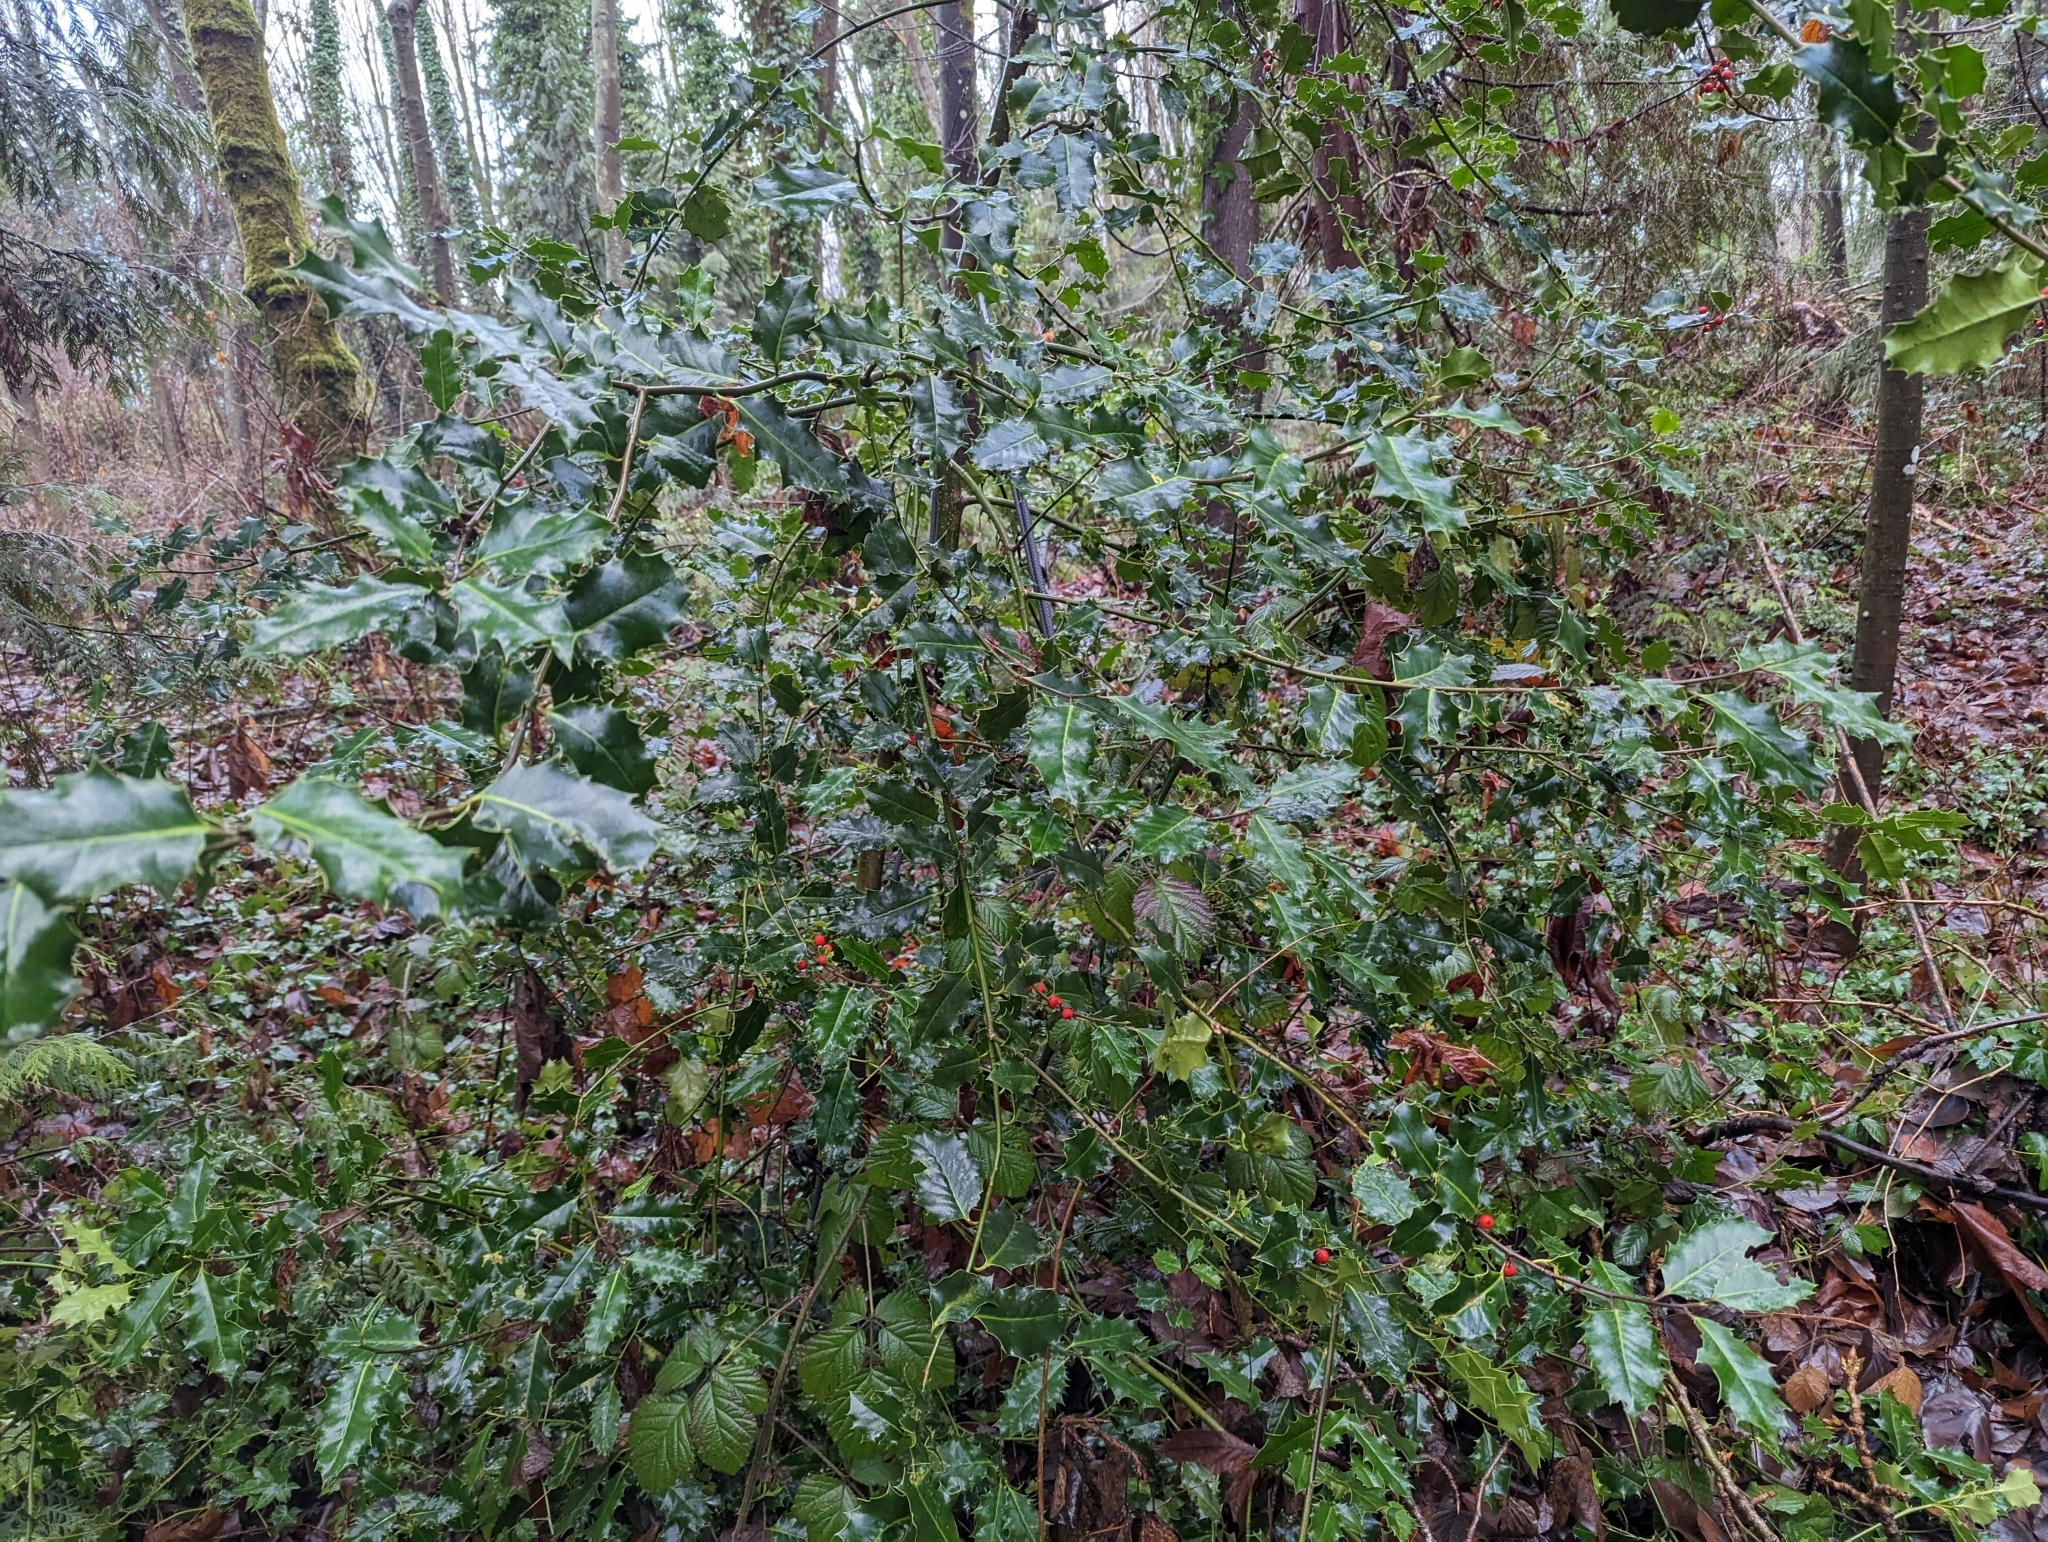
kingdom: Plantae
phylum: Tracheophyta
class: Magnoliopsida
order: Aquifoliales
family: Aquifoliaceae
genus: Ilex
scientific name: Ilex aquifolium
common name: English holly
